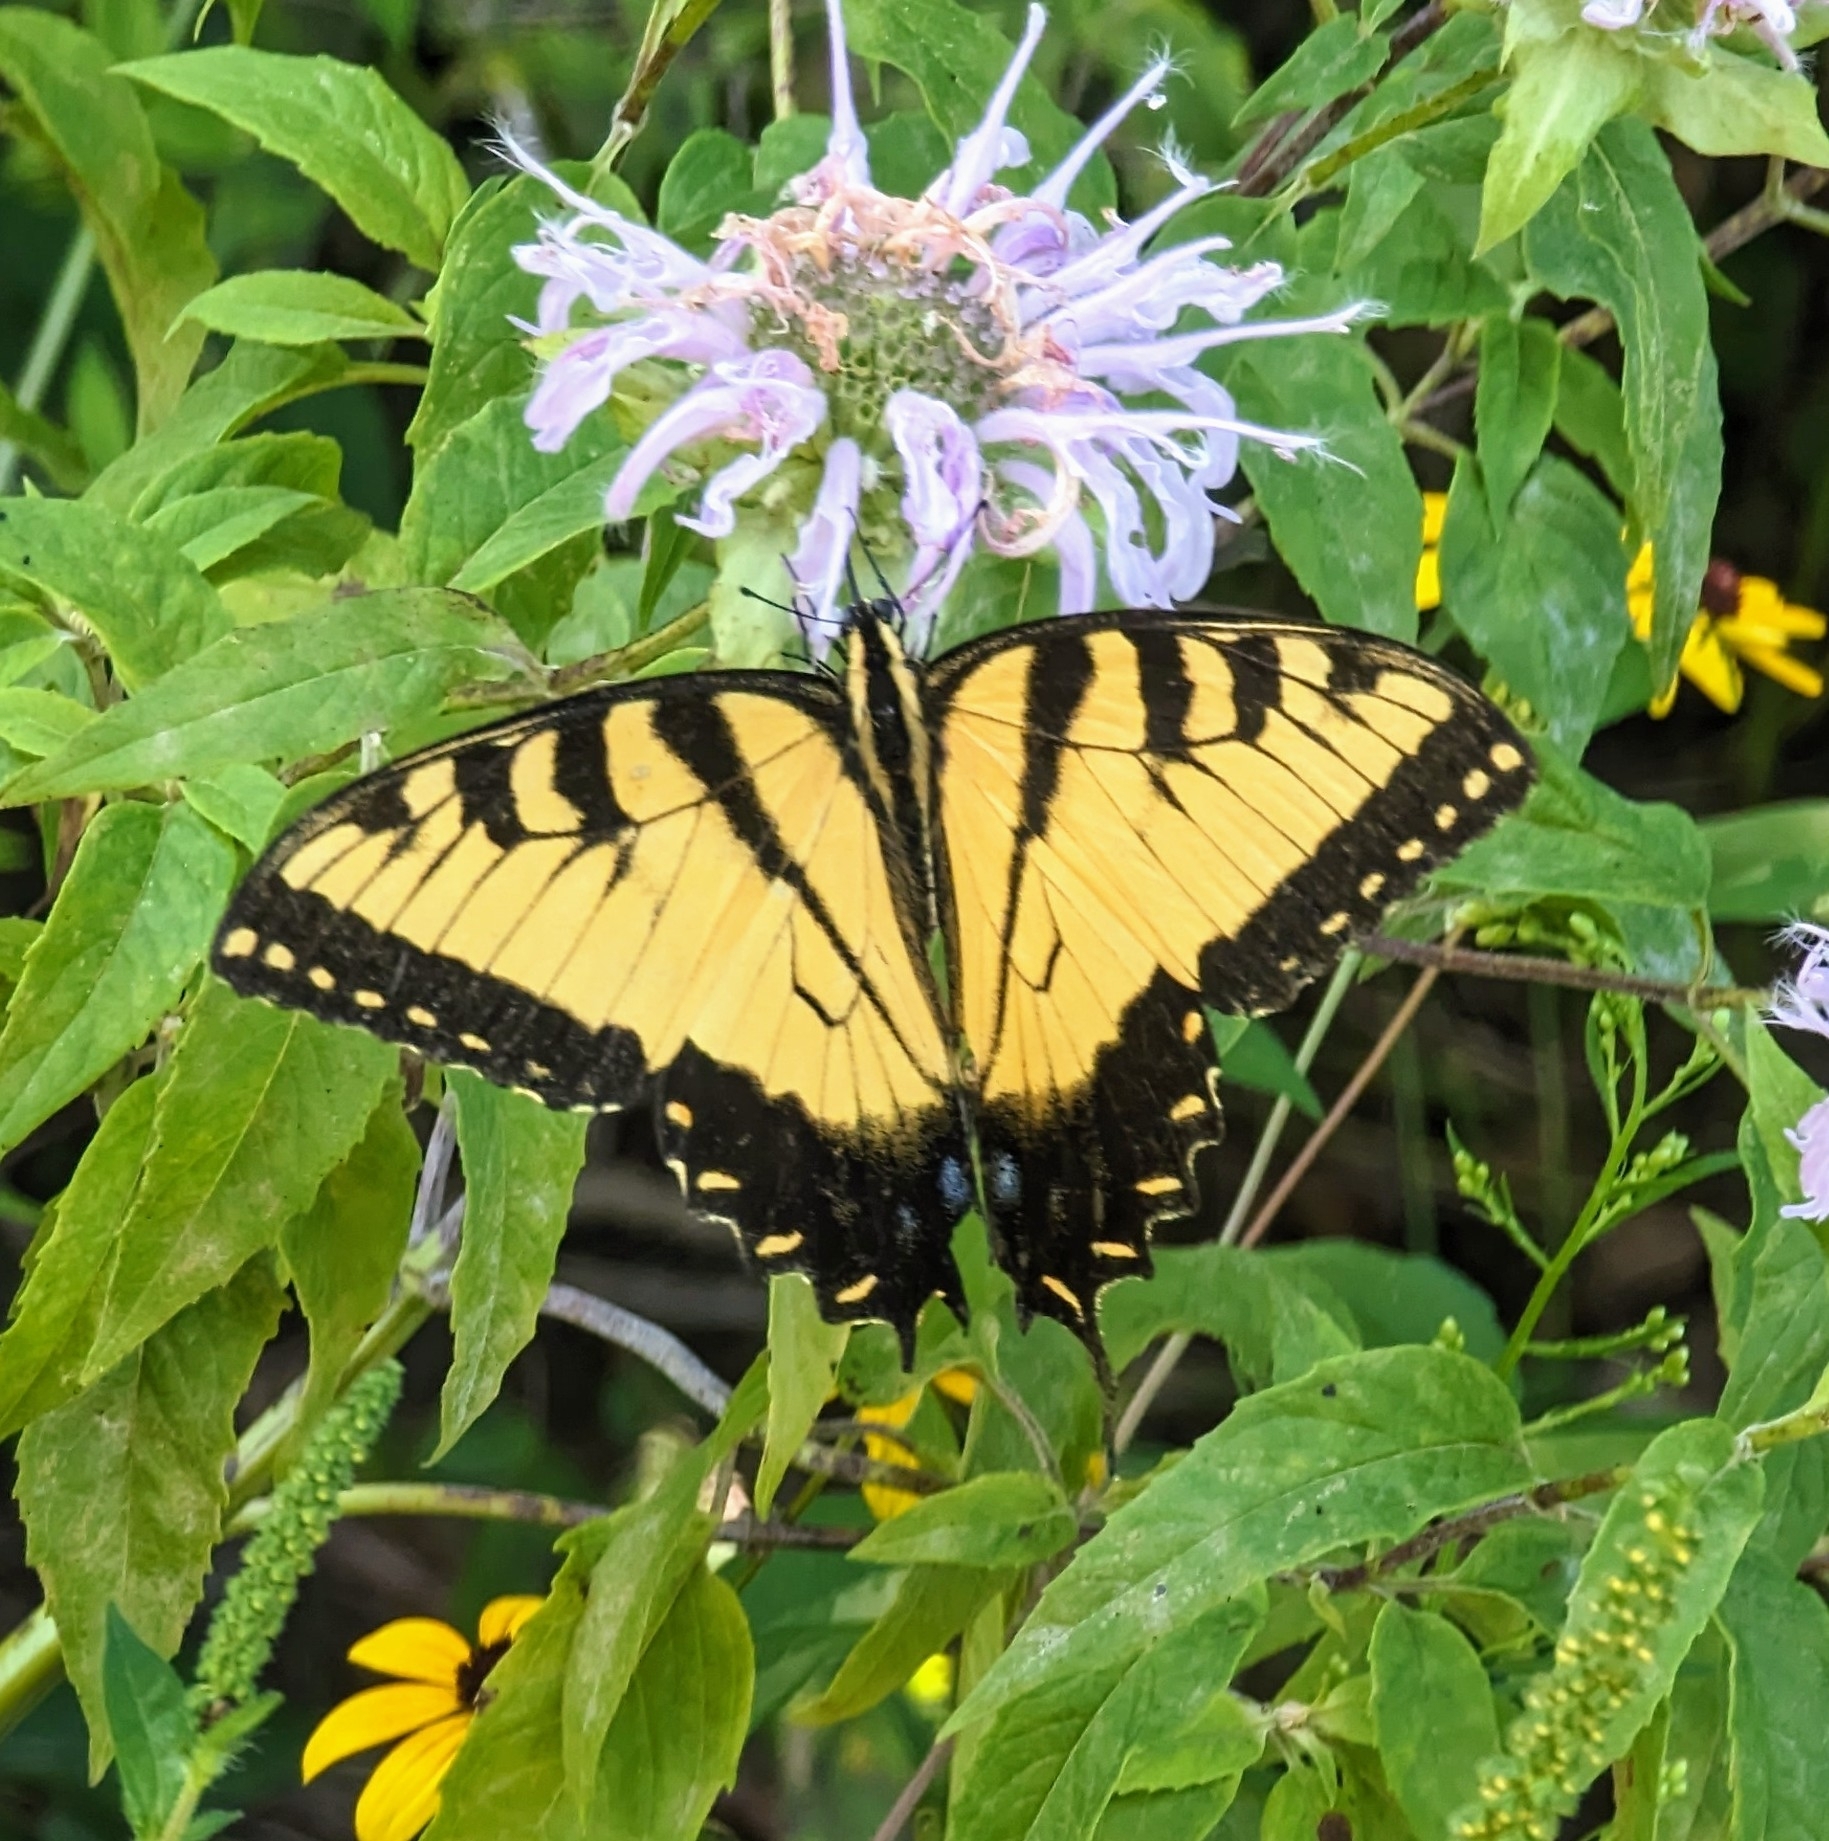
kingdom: Animalia
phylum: Arthropoda
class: Insecta
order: Lepidoptera
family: Papilionidae
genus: Papilio
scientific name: Papilio glaucus
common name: Tiger swallowtail
